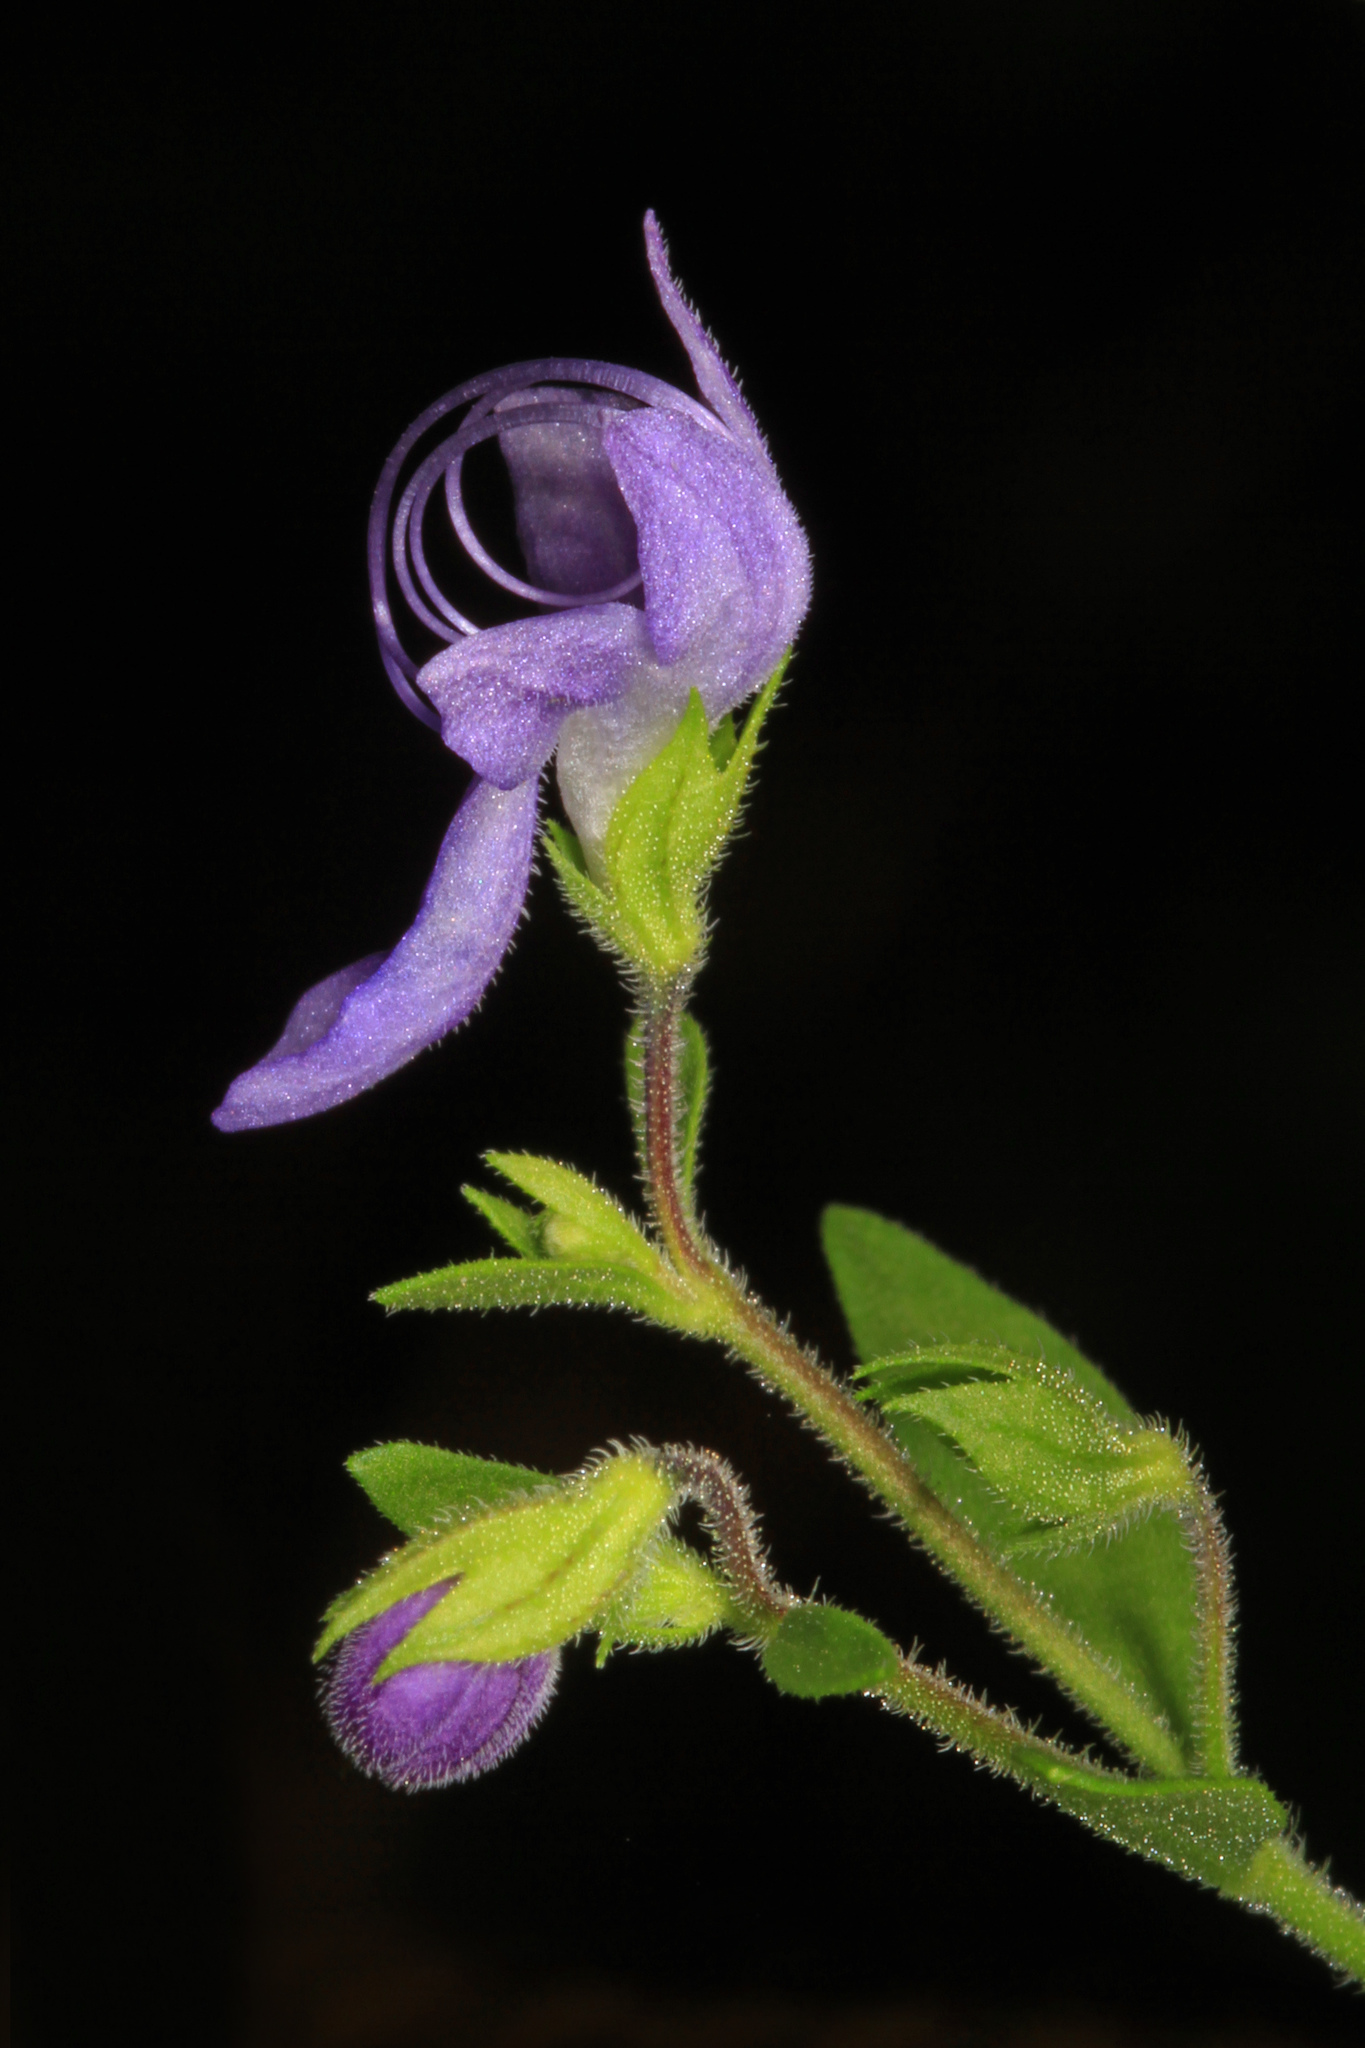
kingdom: Plantae
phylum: Tracheophyta
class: Magnoliopsida
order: Lamiales
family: Lamiaceae
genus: Trichostema
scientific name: Trichostema dichotomum
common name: Bastard pennyroyal
